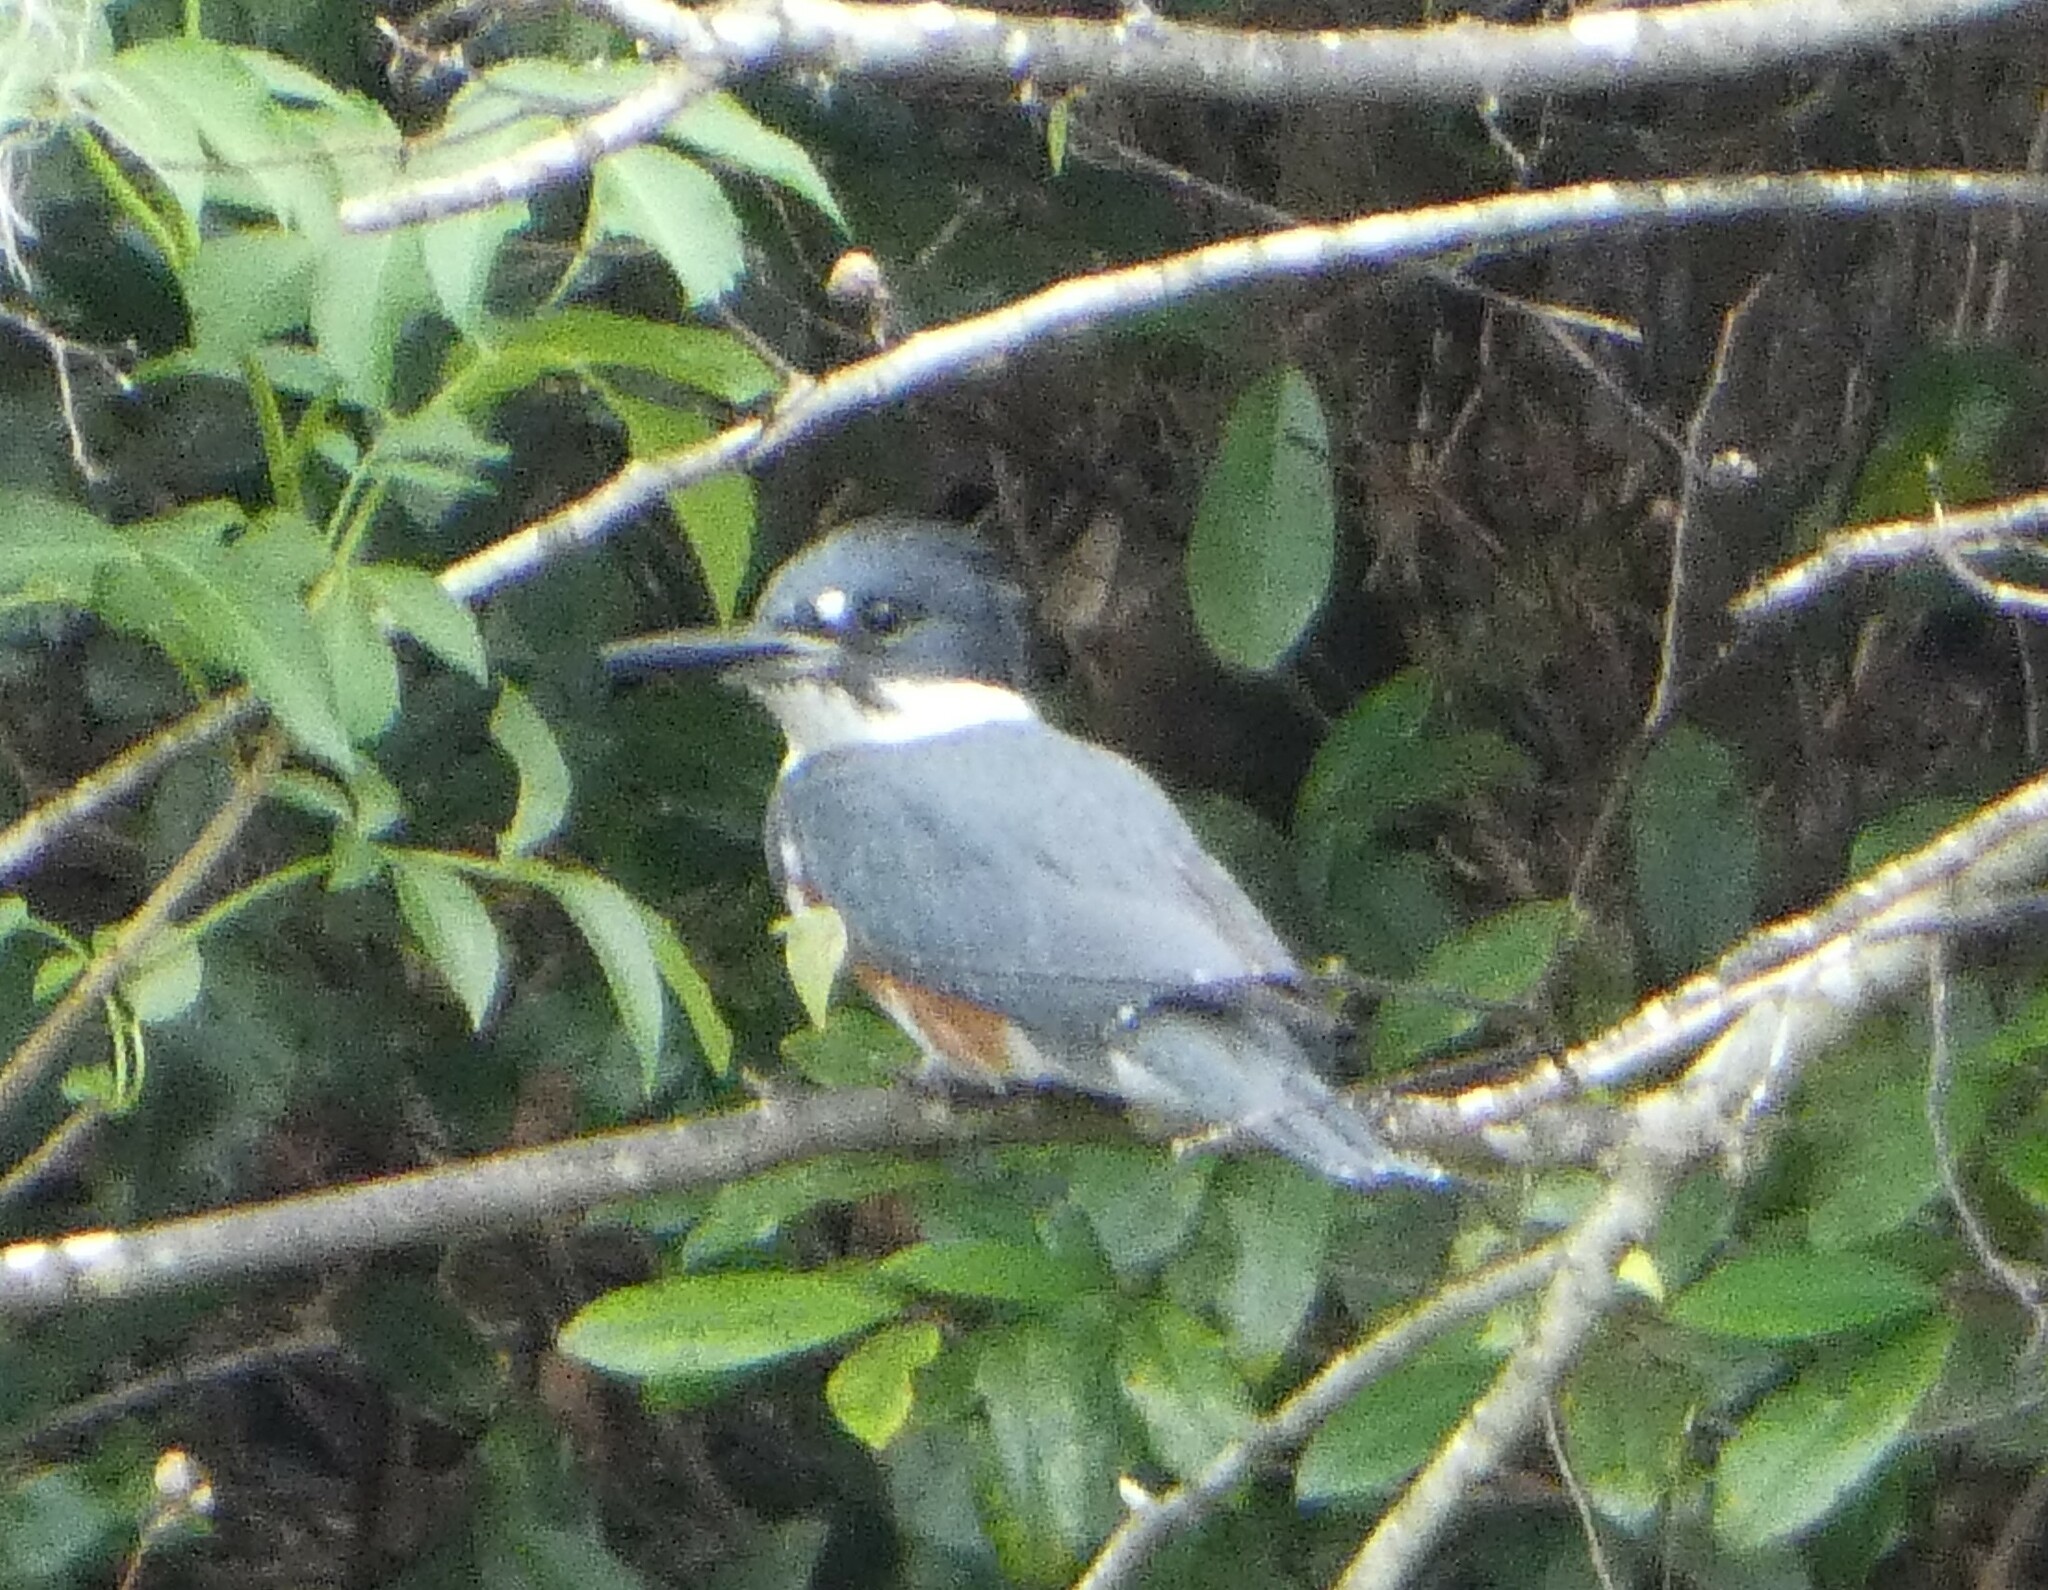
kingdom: Animalia
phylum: Chordata
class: Aves
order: Coraciiformes
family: Alcedinidae
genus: Megaceryle
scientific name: Megaceryle alcyon
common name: Belted kingfisher
